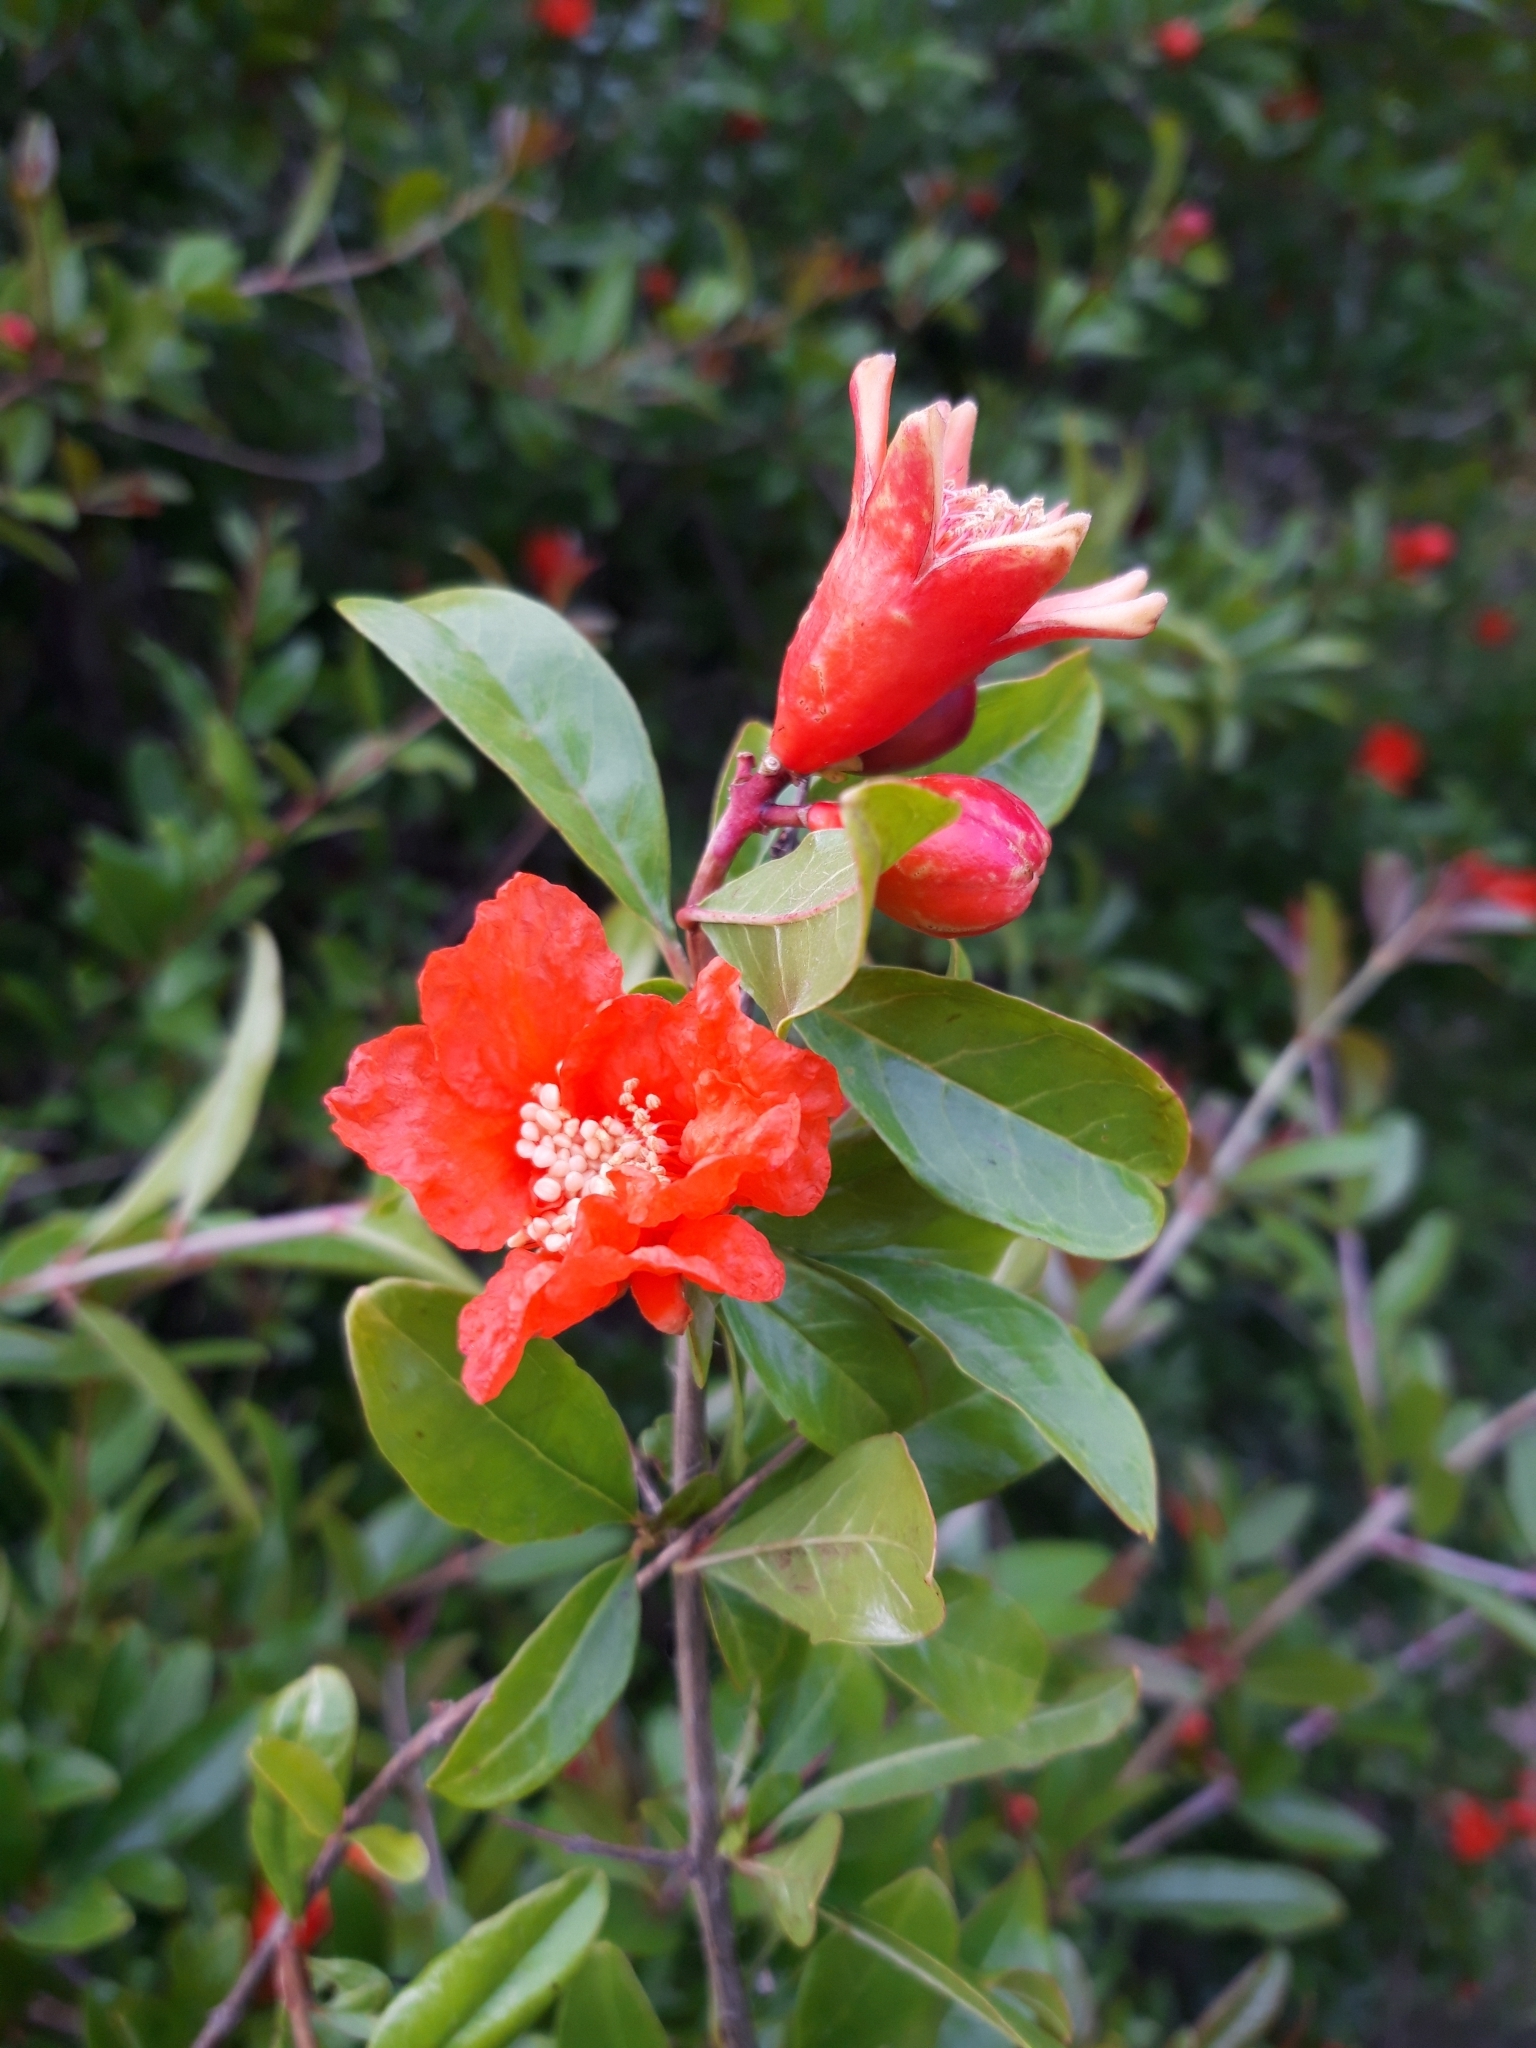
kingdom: Plantae
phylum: Tracheophyta
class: Magnoliopsida
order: Myrtales
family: Lythraceae
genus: Punica
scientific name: Punica granatum
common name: Pomegranate
